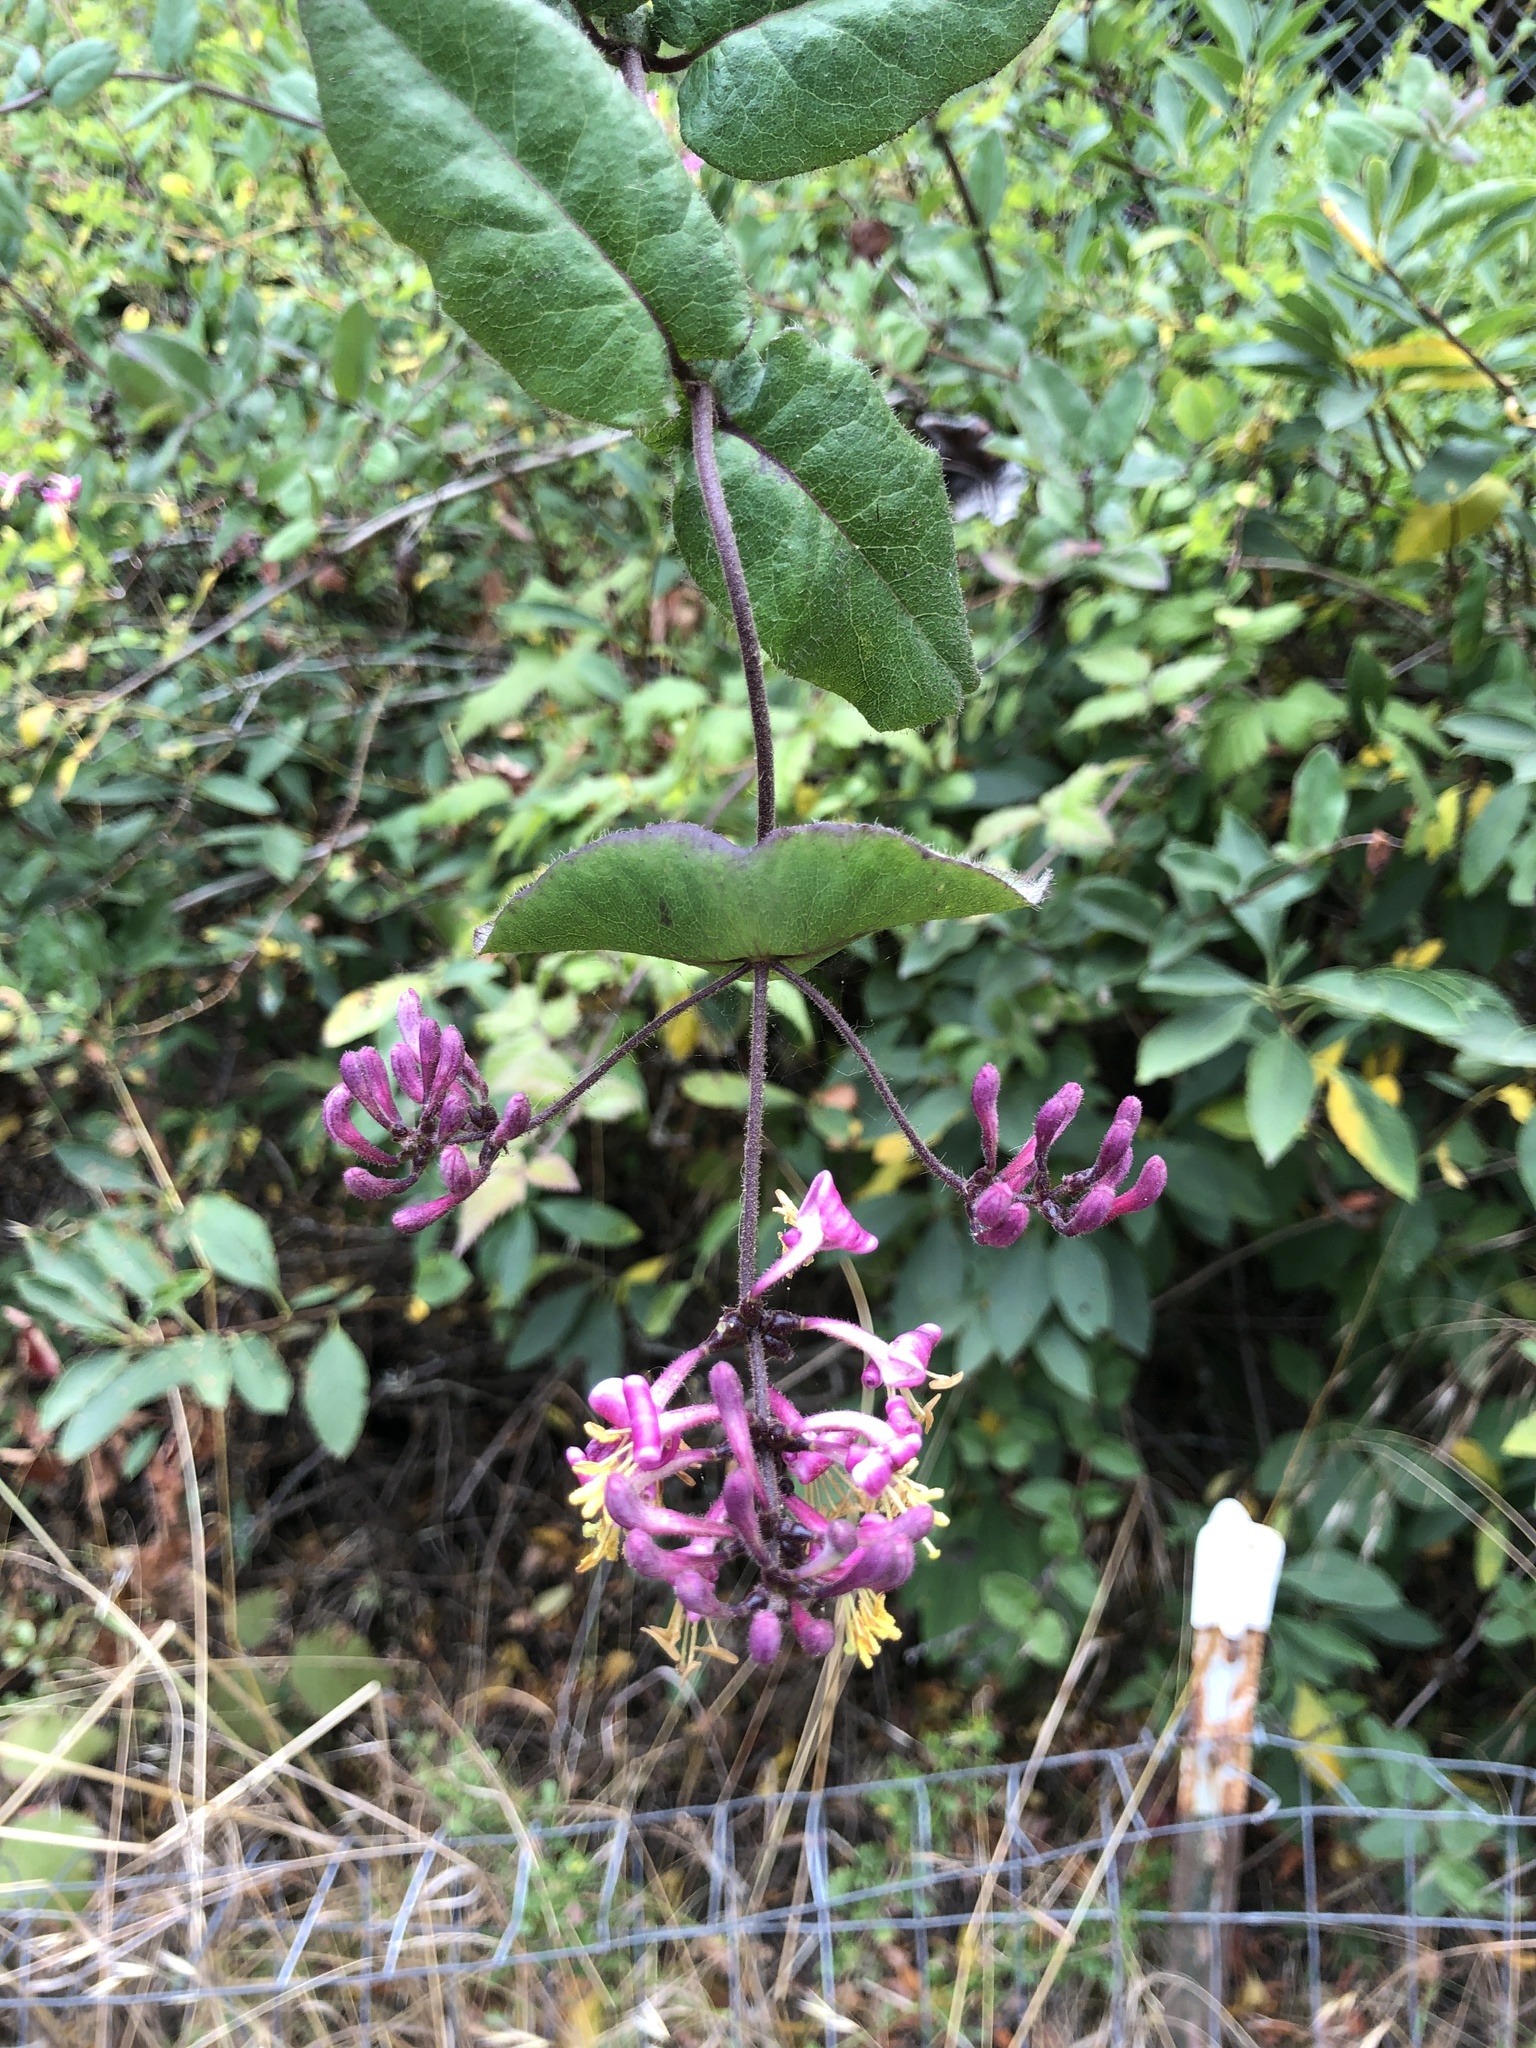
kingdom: Plantae
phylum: Tracheophyta
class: Magnoliopsida
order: Dipsacales
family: Caprifoliaceae
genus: Lonicera
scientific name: Lonicera hispidula
